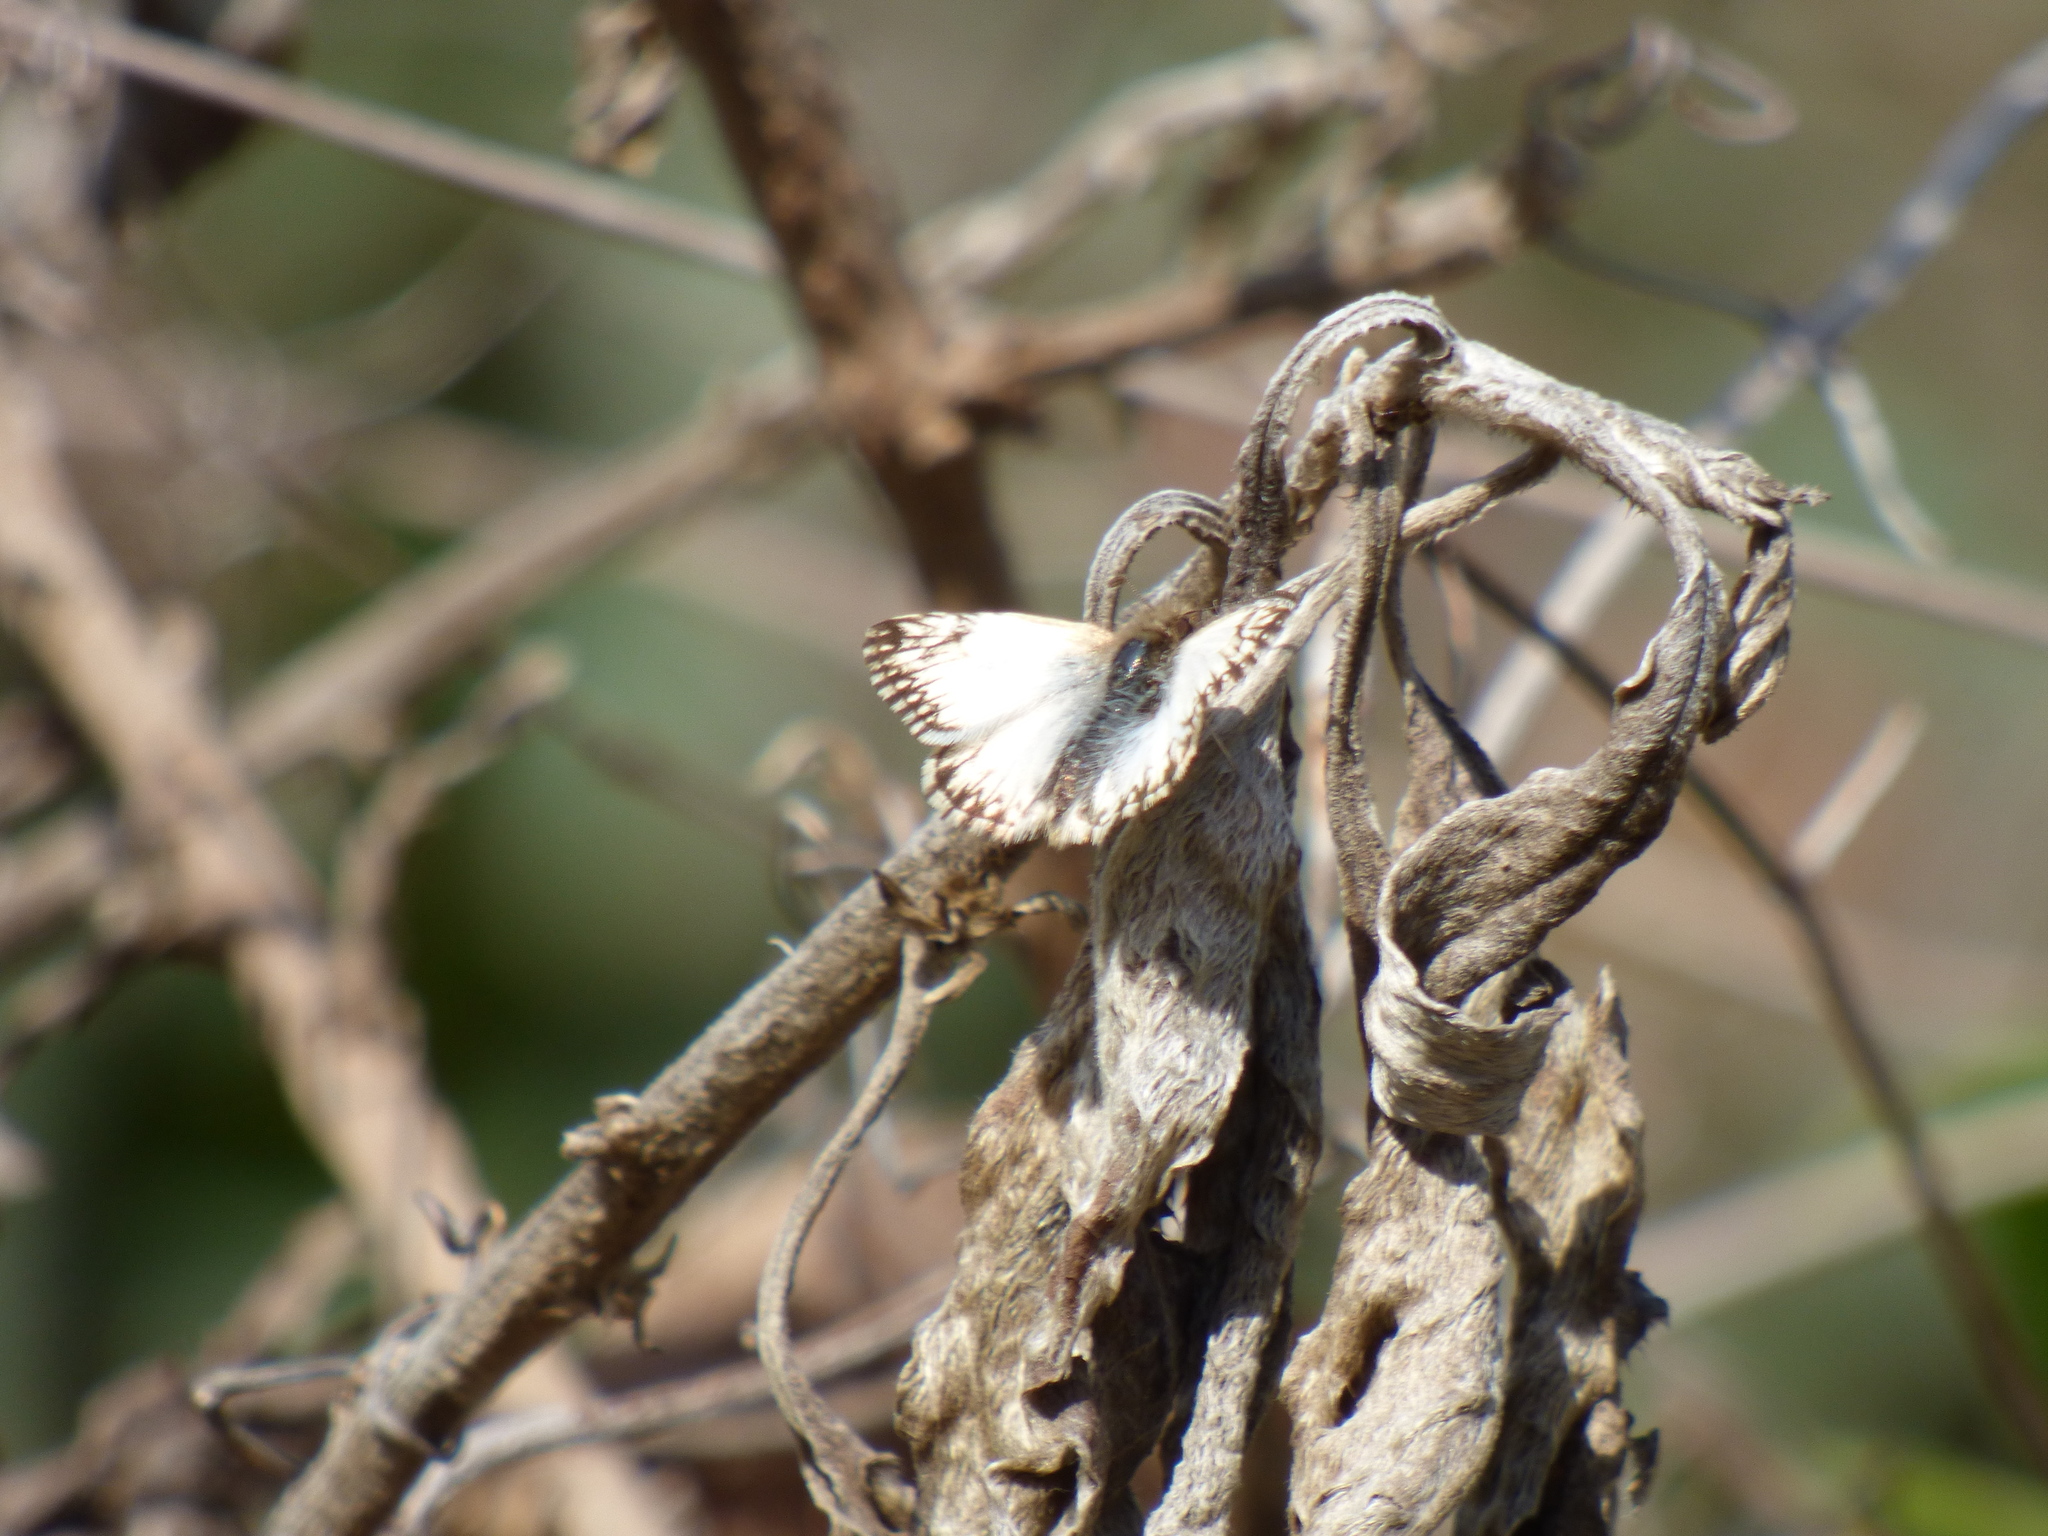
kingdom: Animalia
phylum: Arthropoda
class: Insecta
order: Lepidoptera
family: Hesperiidae
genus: Heliopetes
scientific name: Heliopetes omrina
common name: Stained white-skipper
